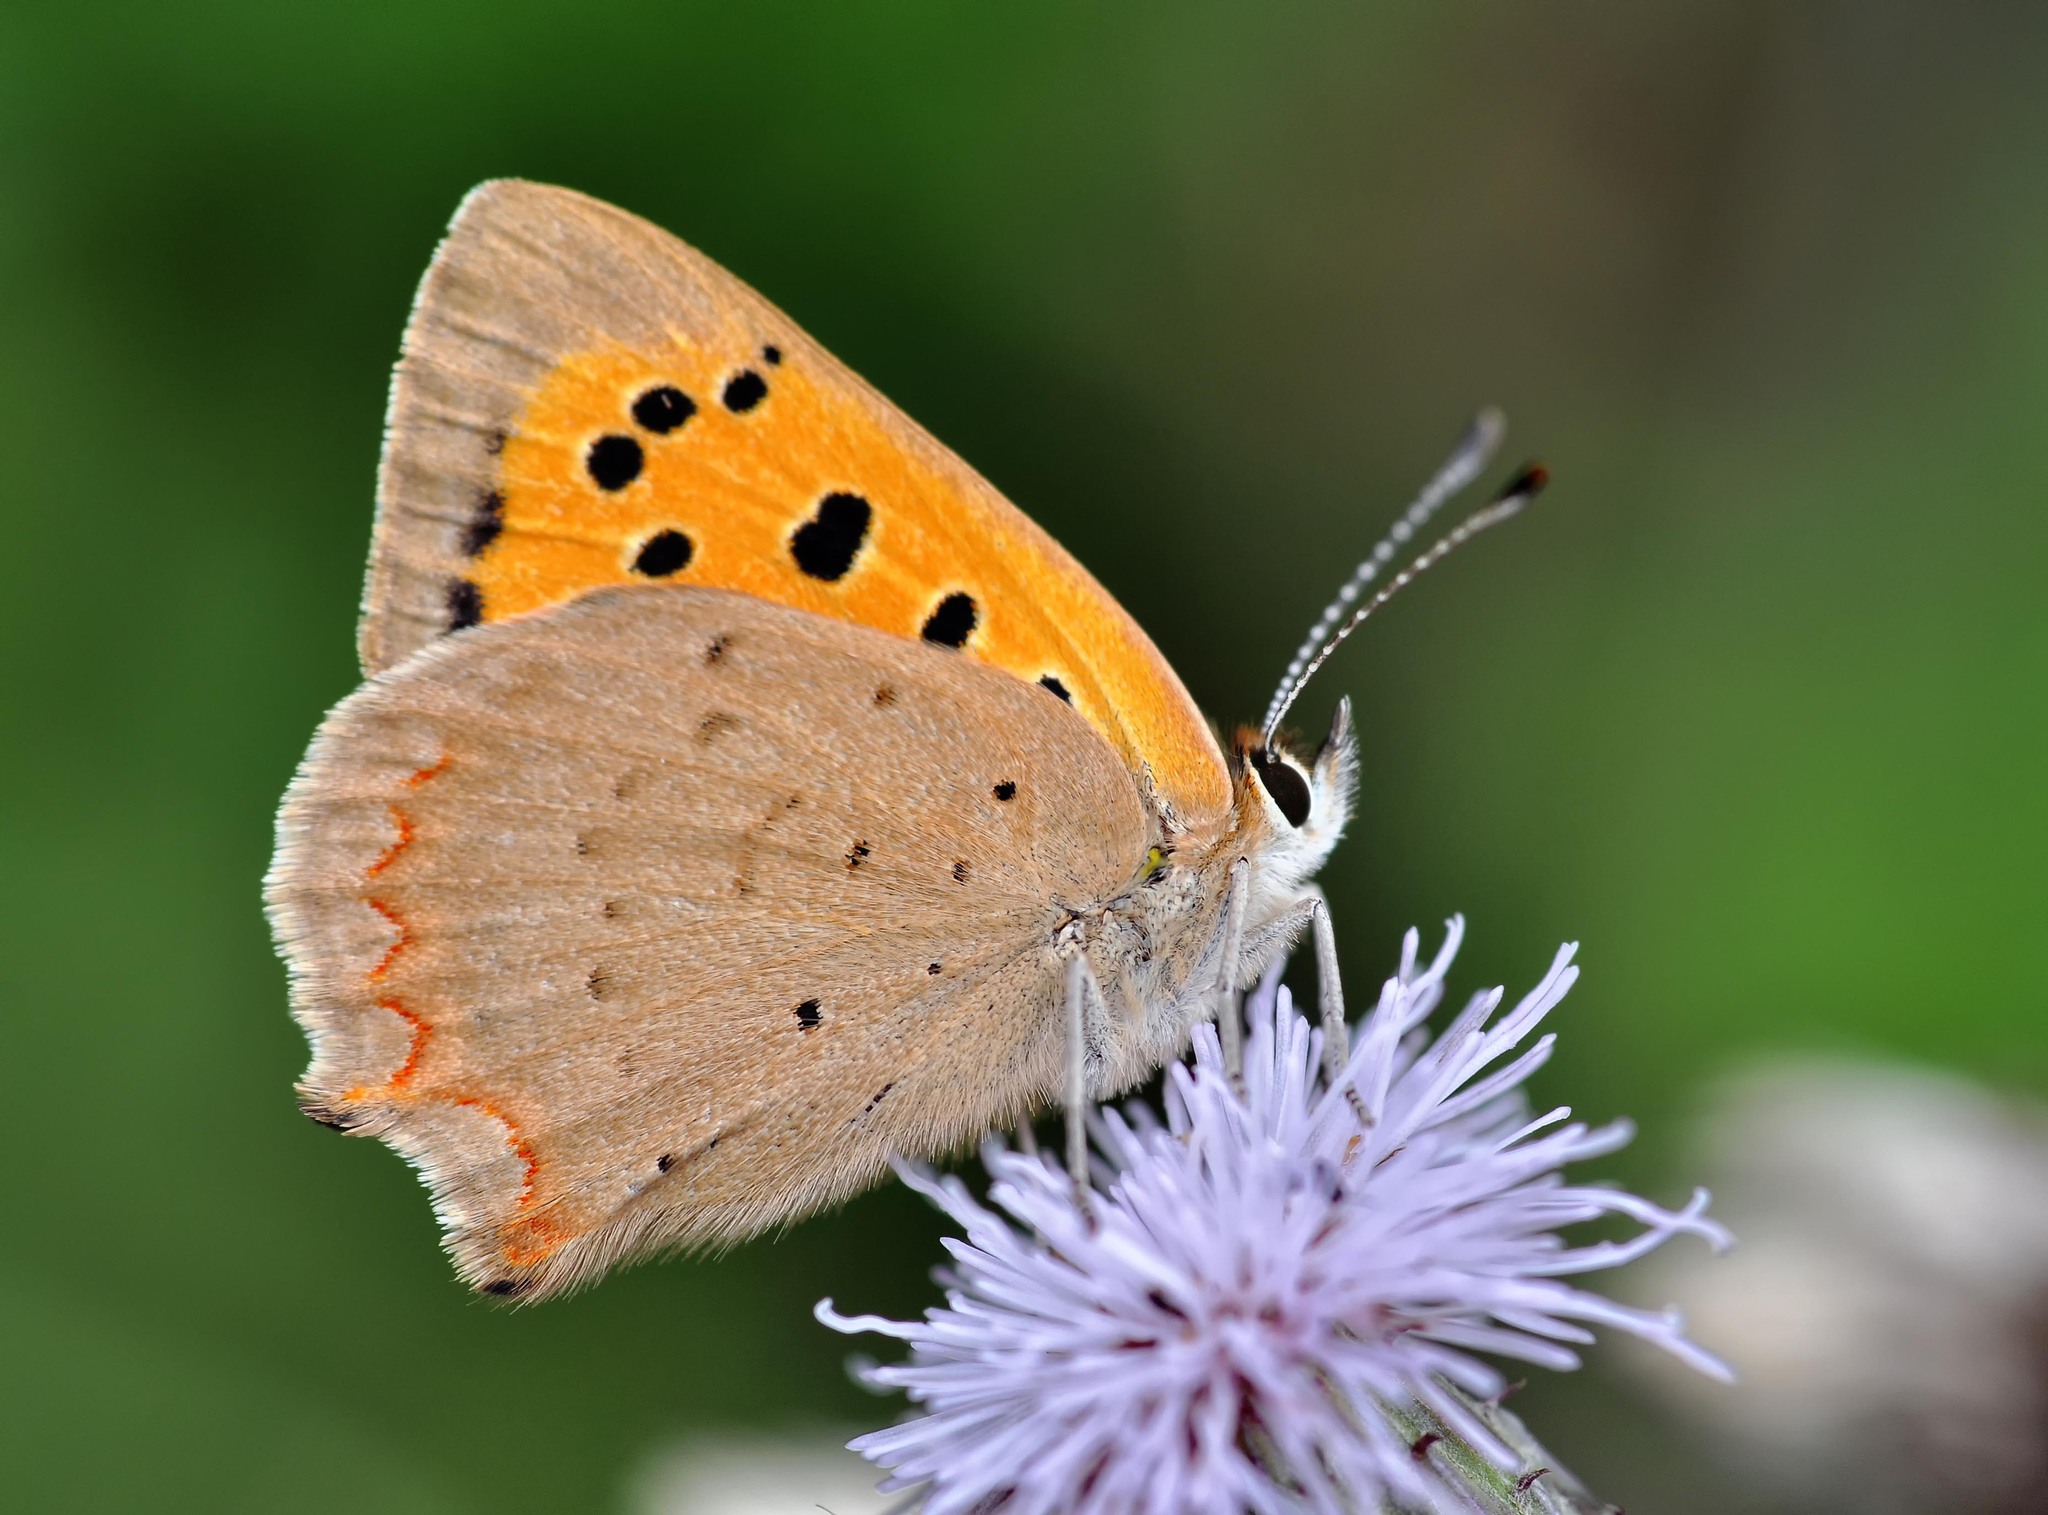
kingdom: Animalia
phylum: Arthropoda
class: Insecta
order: Lepidoptera
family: Lycaenidae
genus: Lycaena
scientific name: Lycaena phlaeas
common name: Small copper
